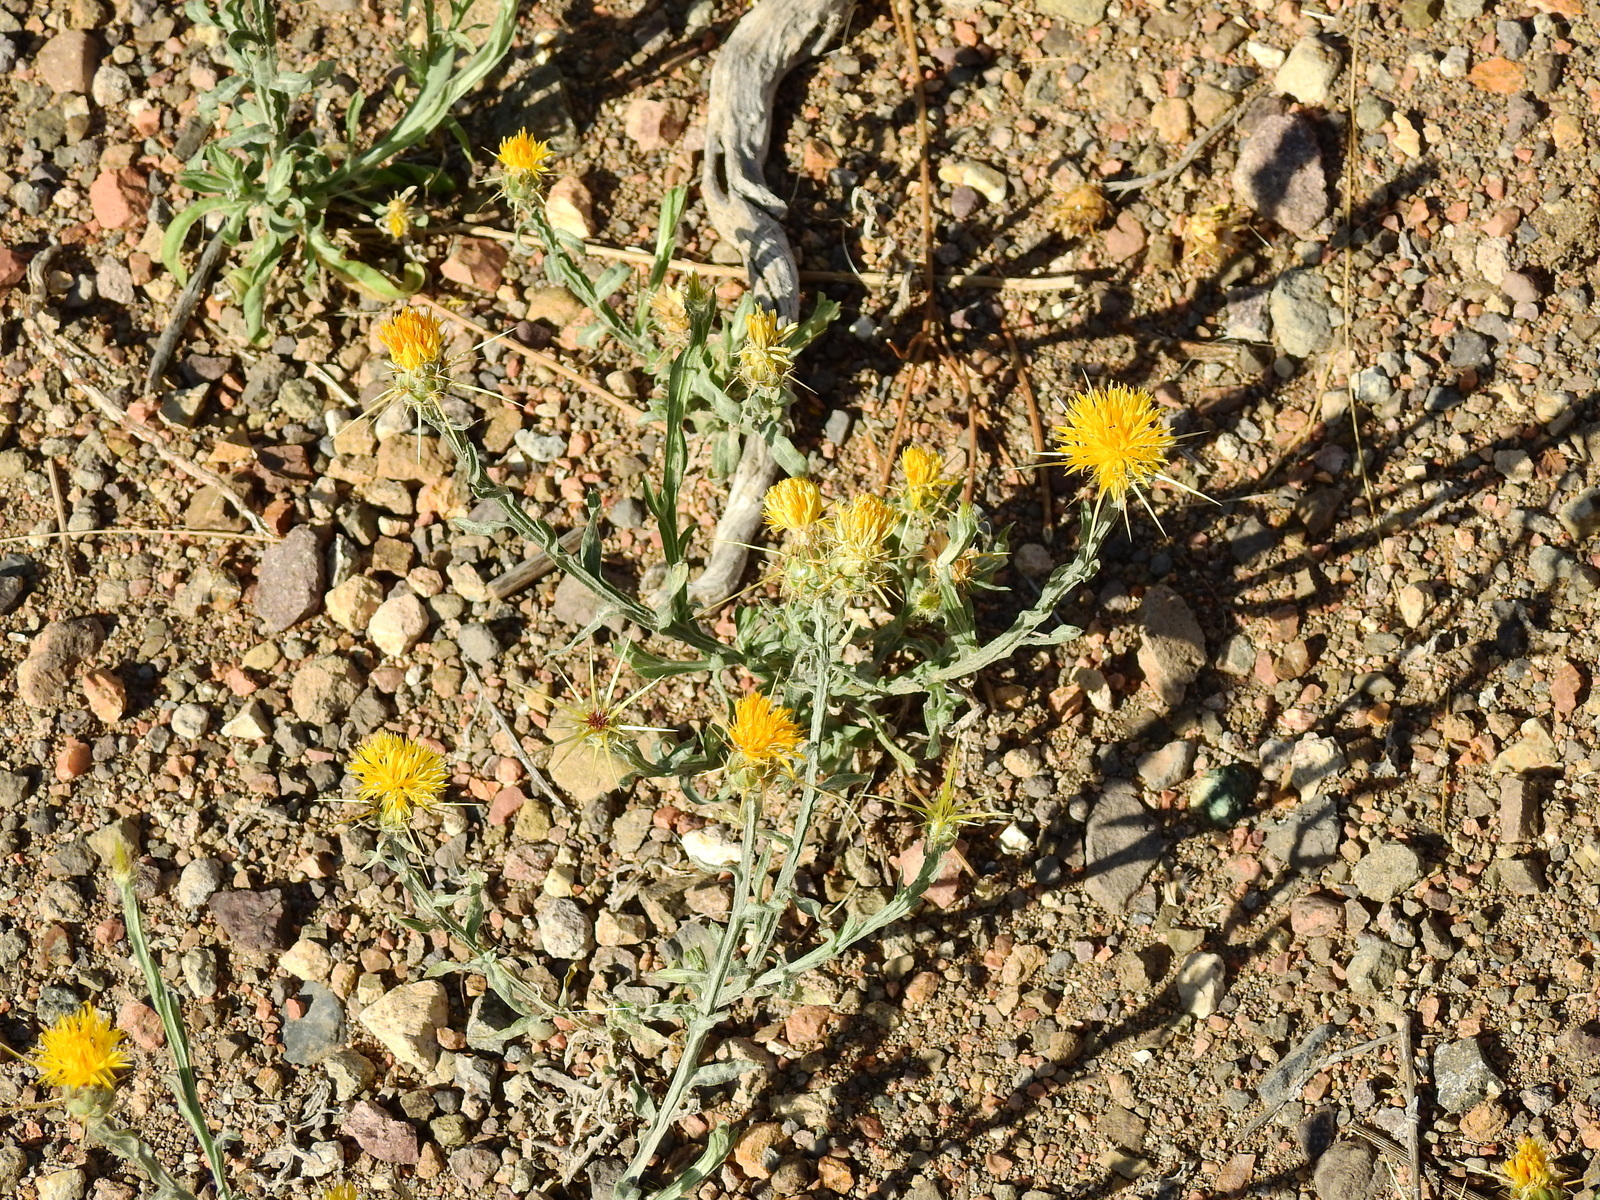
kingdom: Plantae
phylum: Tracheophyta
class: Magnoliopsida
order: Asterales
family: Asteraceae
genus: Centaurea
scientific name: Centaurea solstitialis
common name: Yellow star-thistle
